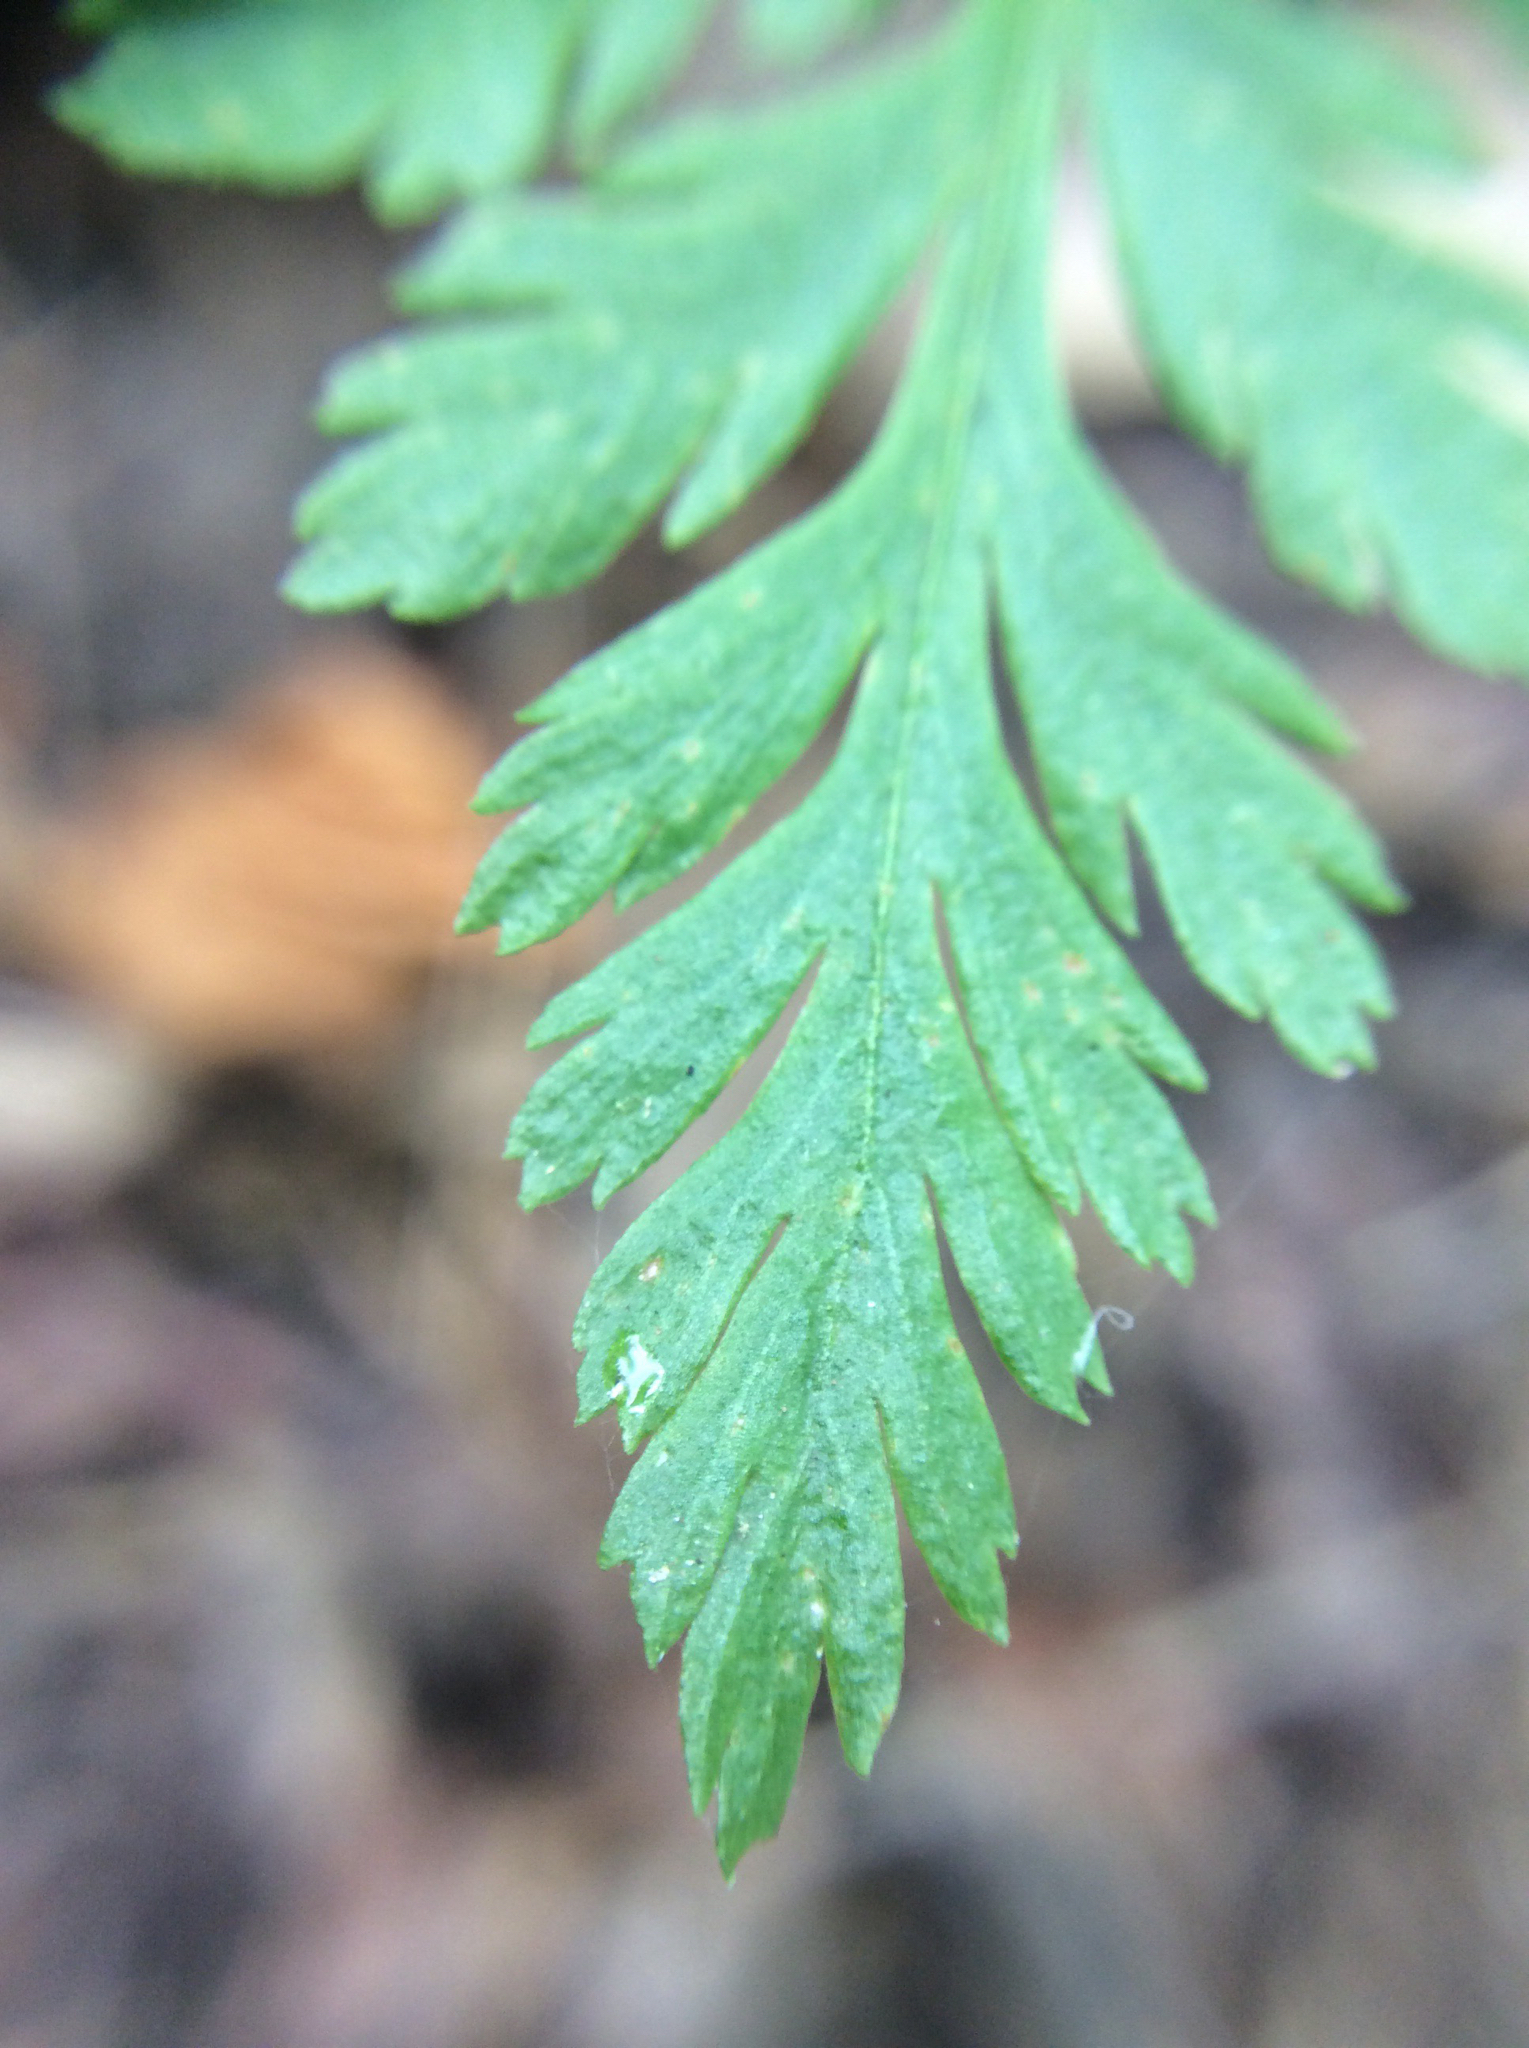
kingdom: Plantae
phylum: Tracheophyta
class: Polypodiopsida
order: Ophioglossales
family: Ophioglossaceae
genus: Botrypus
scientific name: Botrypus virginianus
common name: Common grapefern
